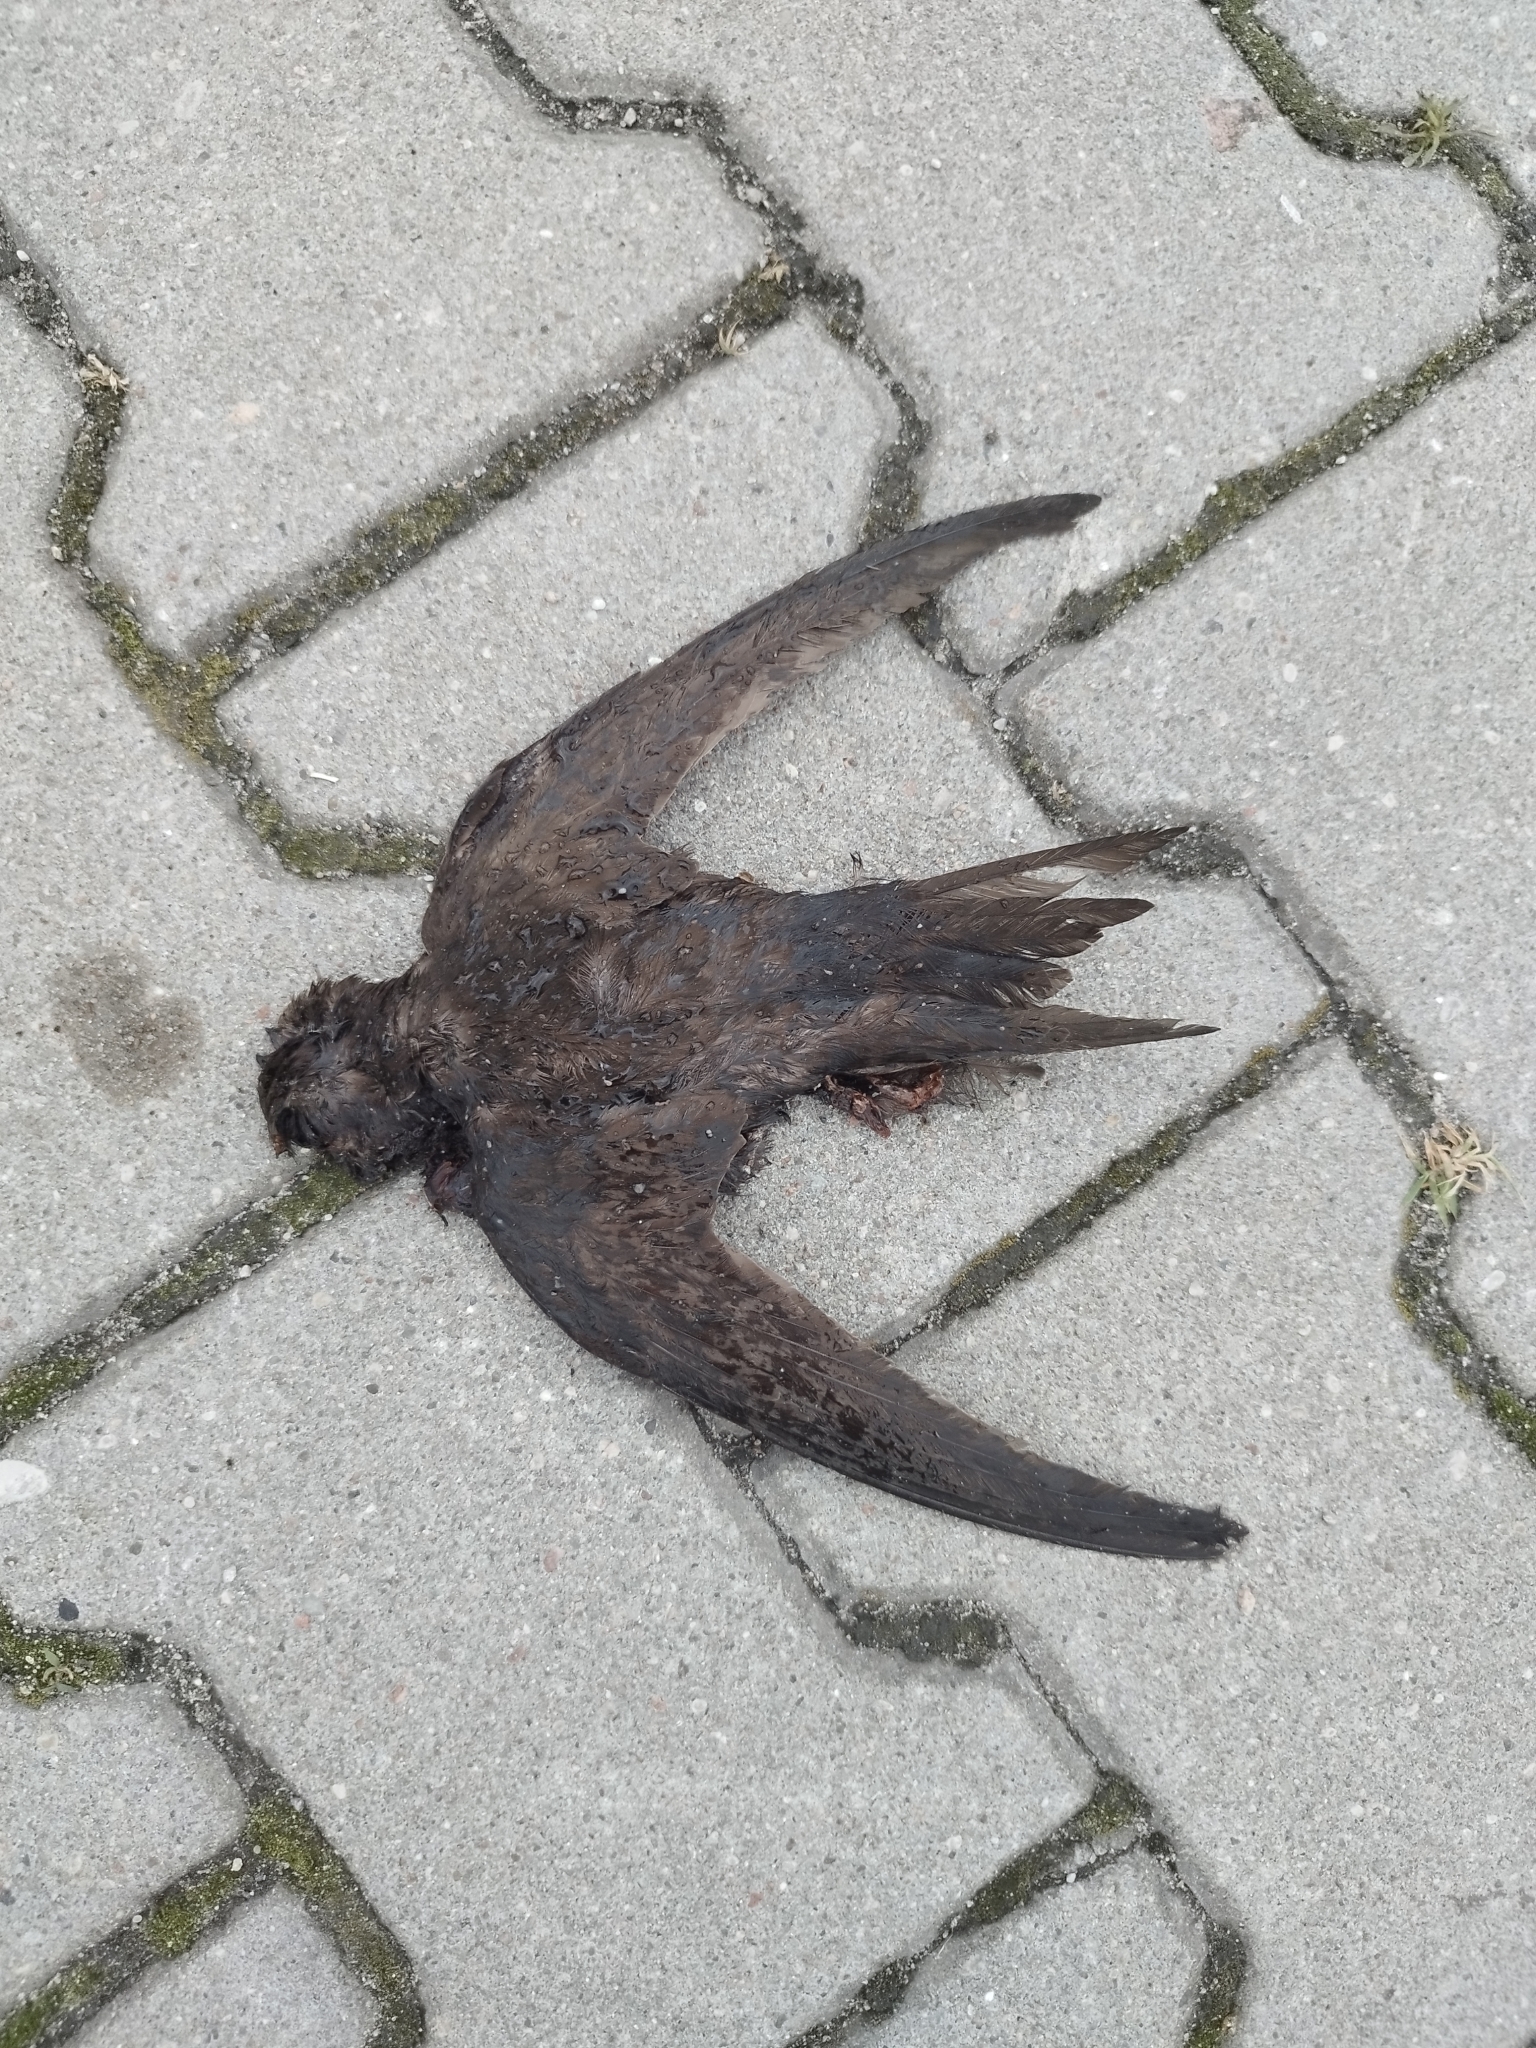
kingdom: Animalia
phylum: Chordata
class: Aves
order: Apodiformes
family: Apodidae
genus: Apus
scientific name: Apus apus
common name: Common swift
